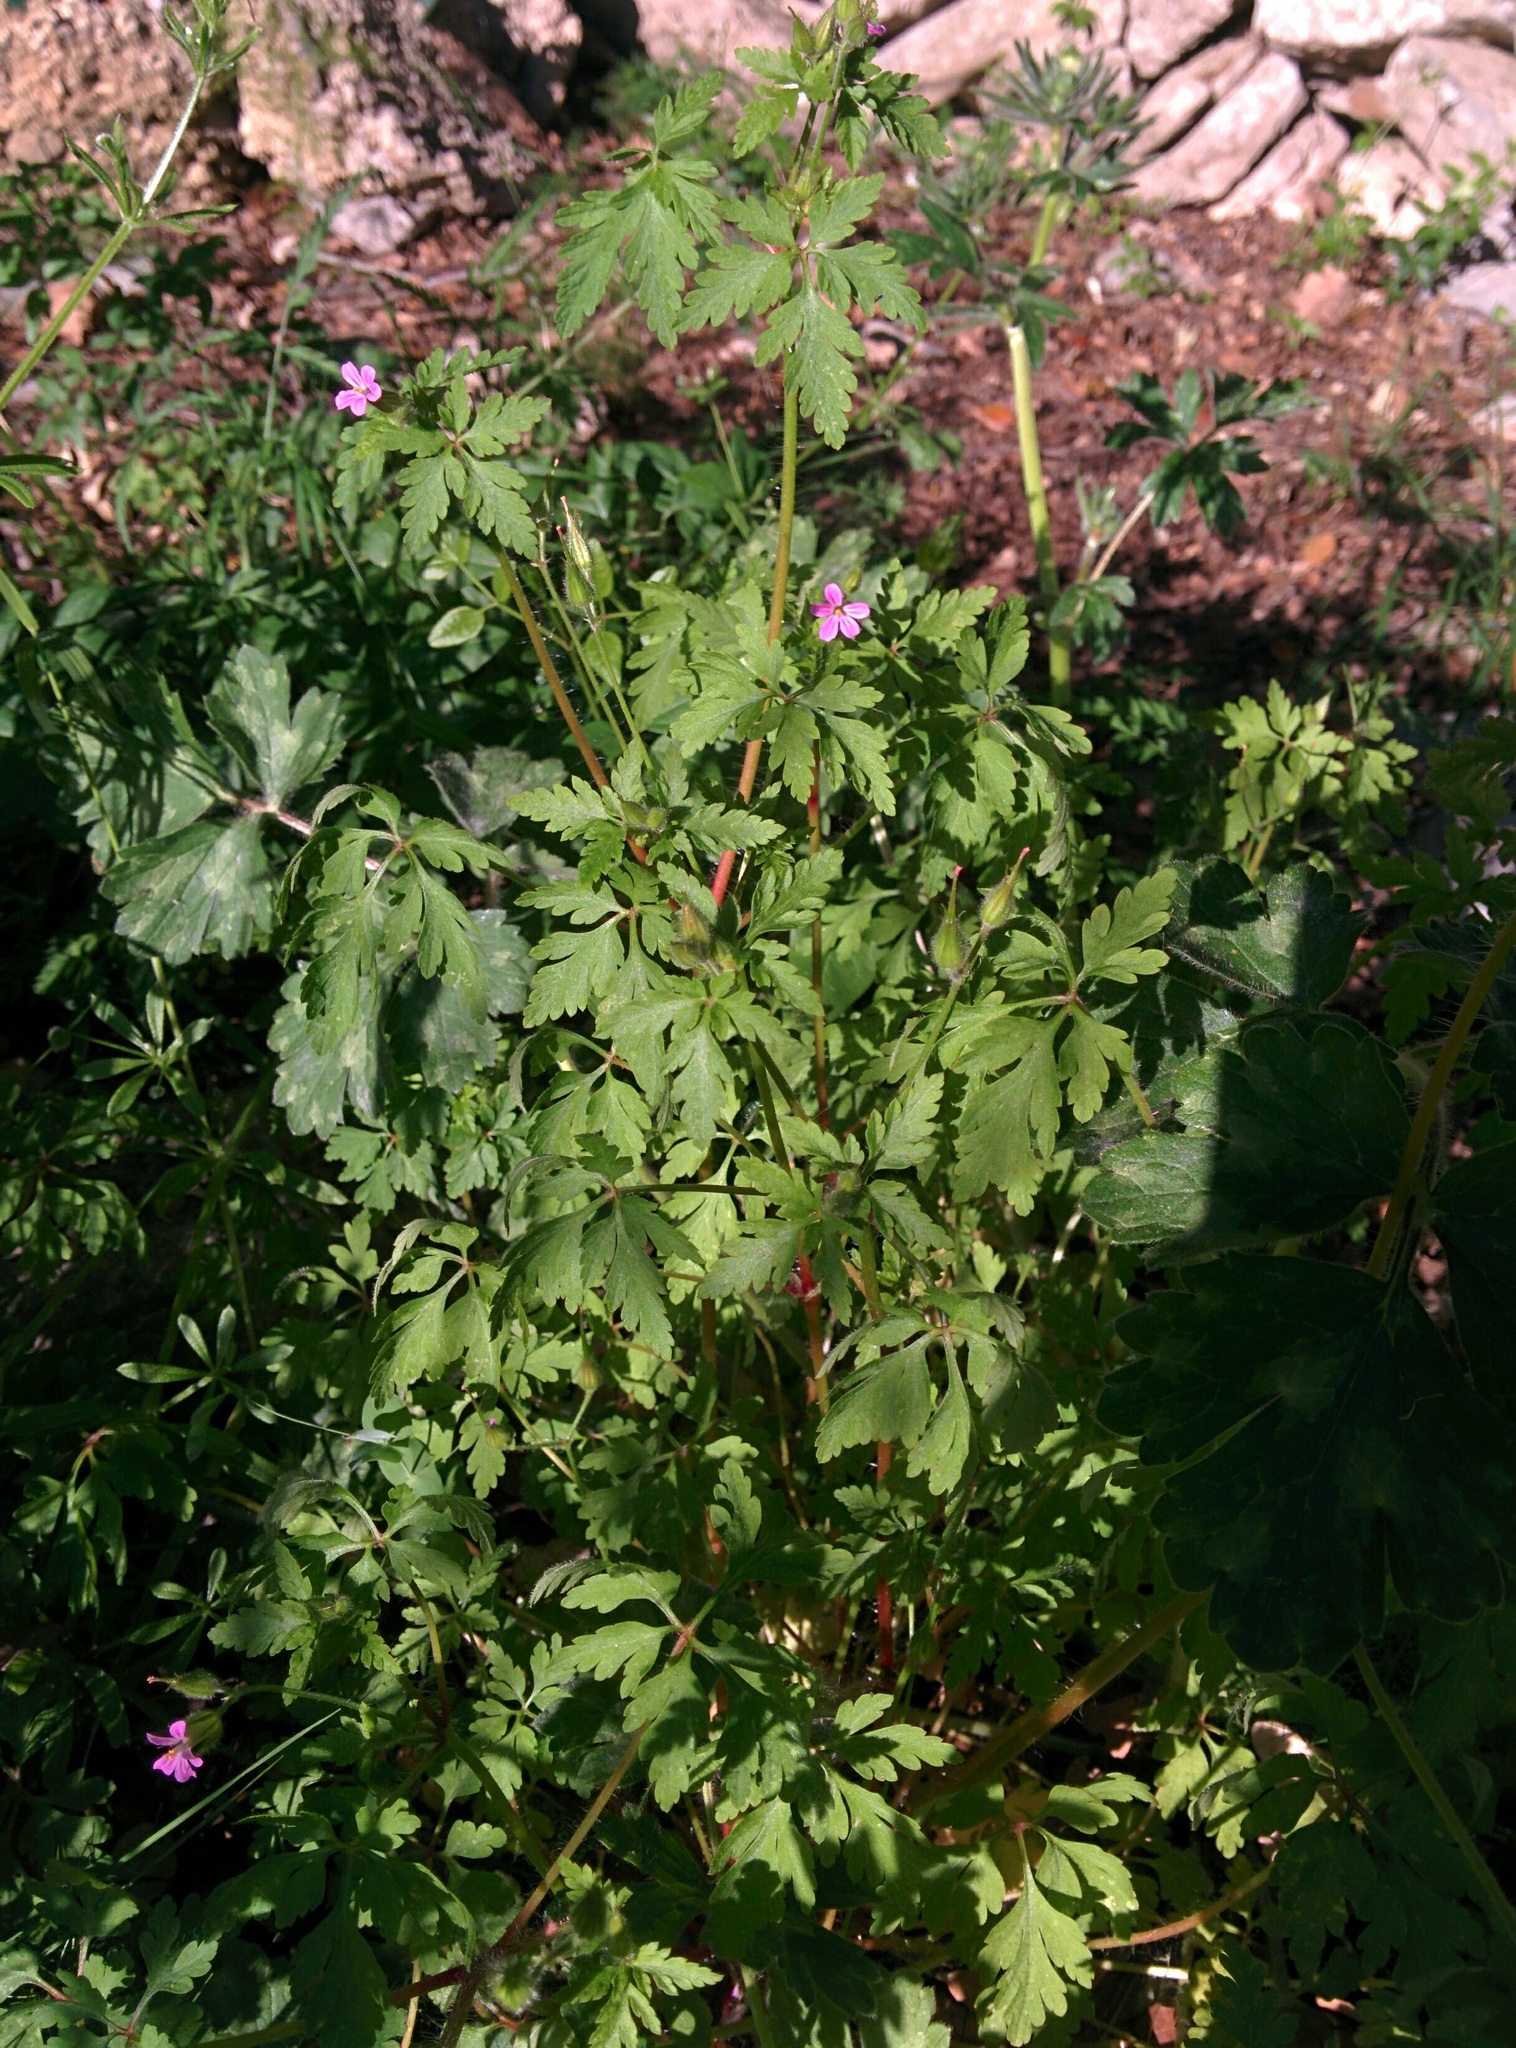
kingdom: Plantae
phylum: Tracheophyta
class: Magnoliopsida
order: Geraniales
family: Geraniaceae
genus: Geranium
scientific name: Geranium robertianum
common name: Herb-robert
